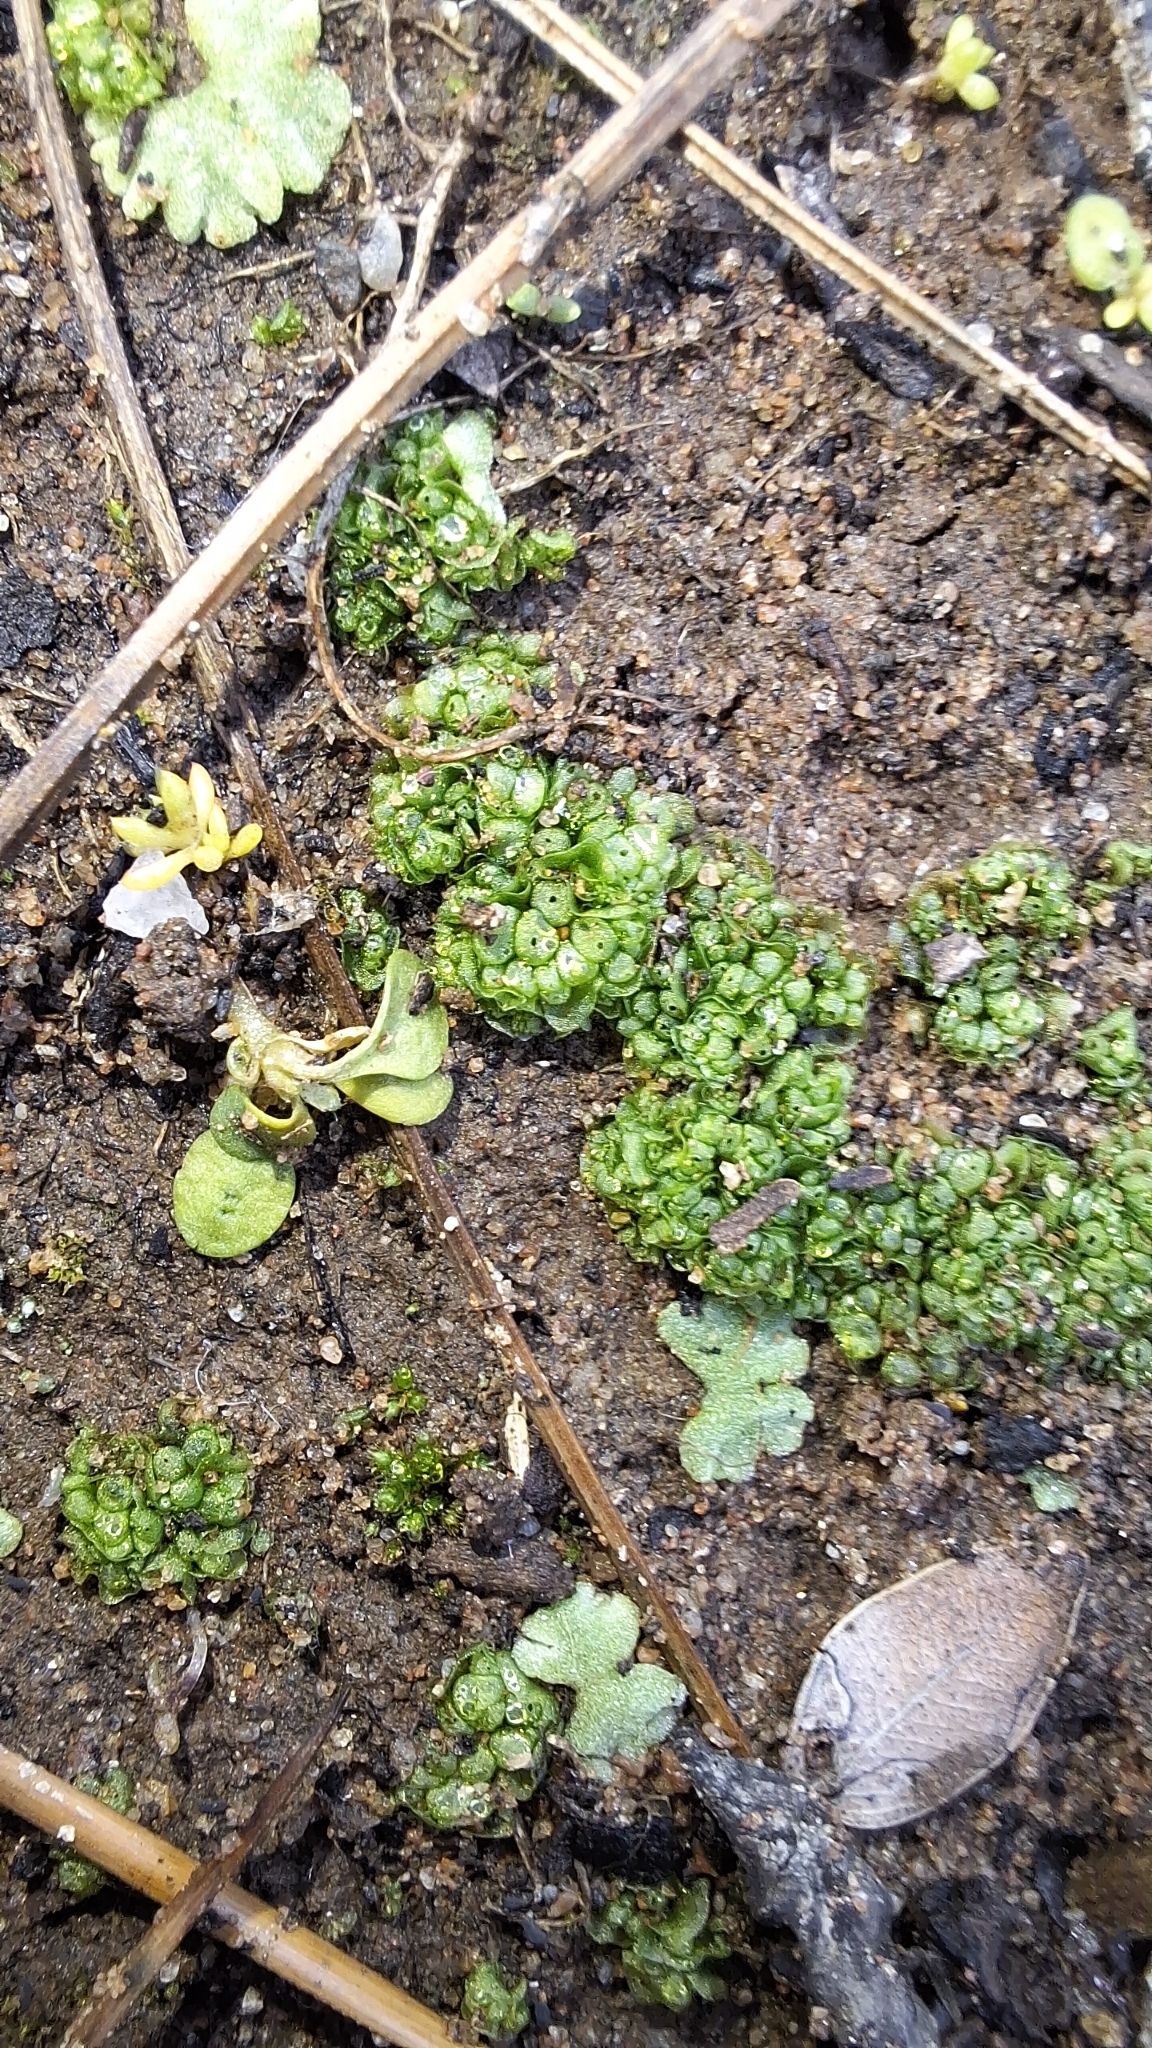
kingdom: Plantae
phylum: Marchantiophyta
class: Marchantiopsida
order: Sphaerocarpales
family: Sphaerocarpaceae
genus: Sphaerocarpos
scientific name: Sphaerocarpos texanus
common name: Texas balloonwort
